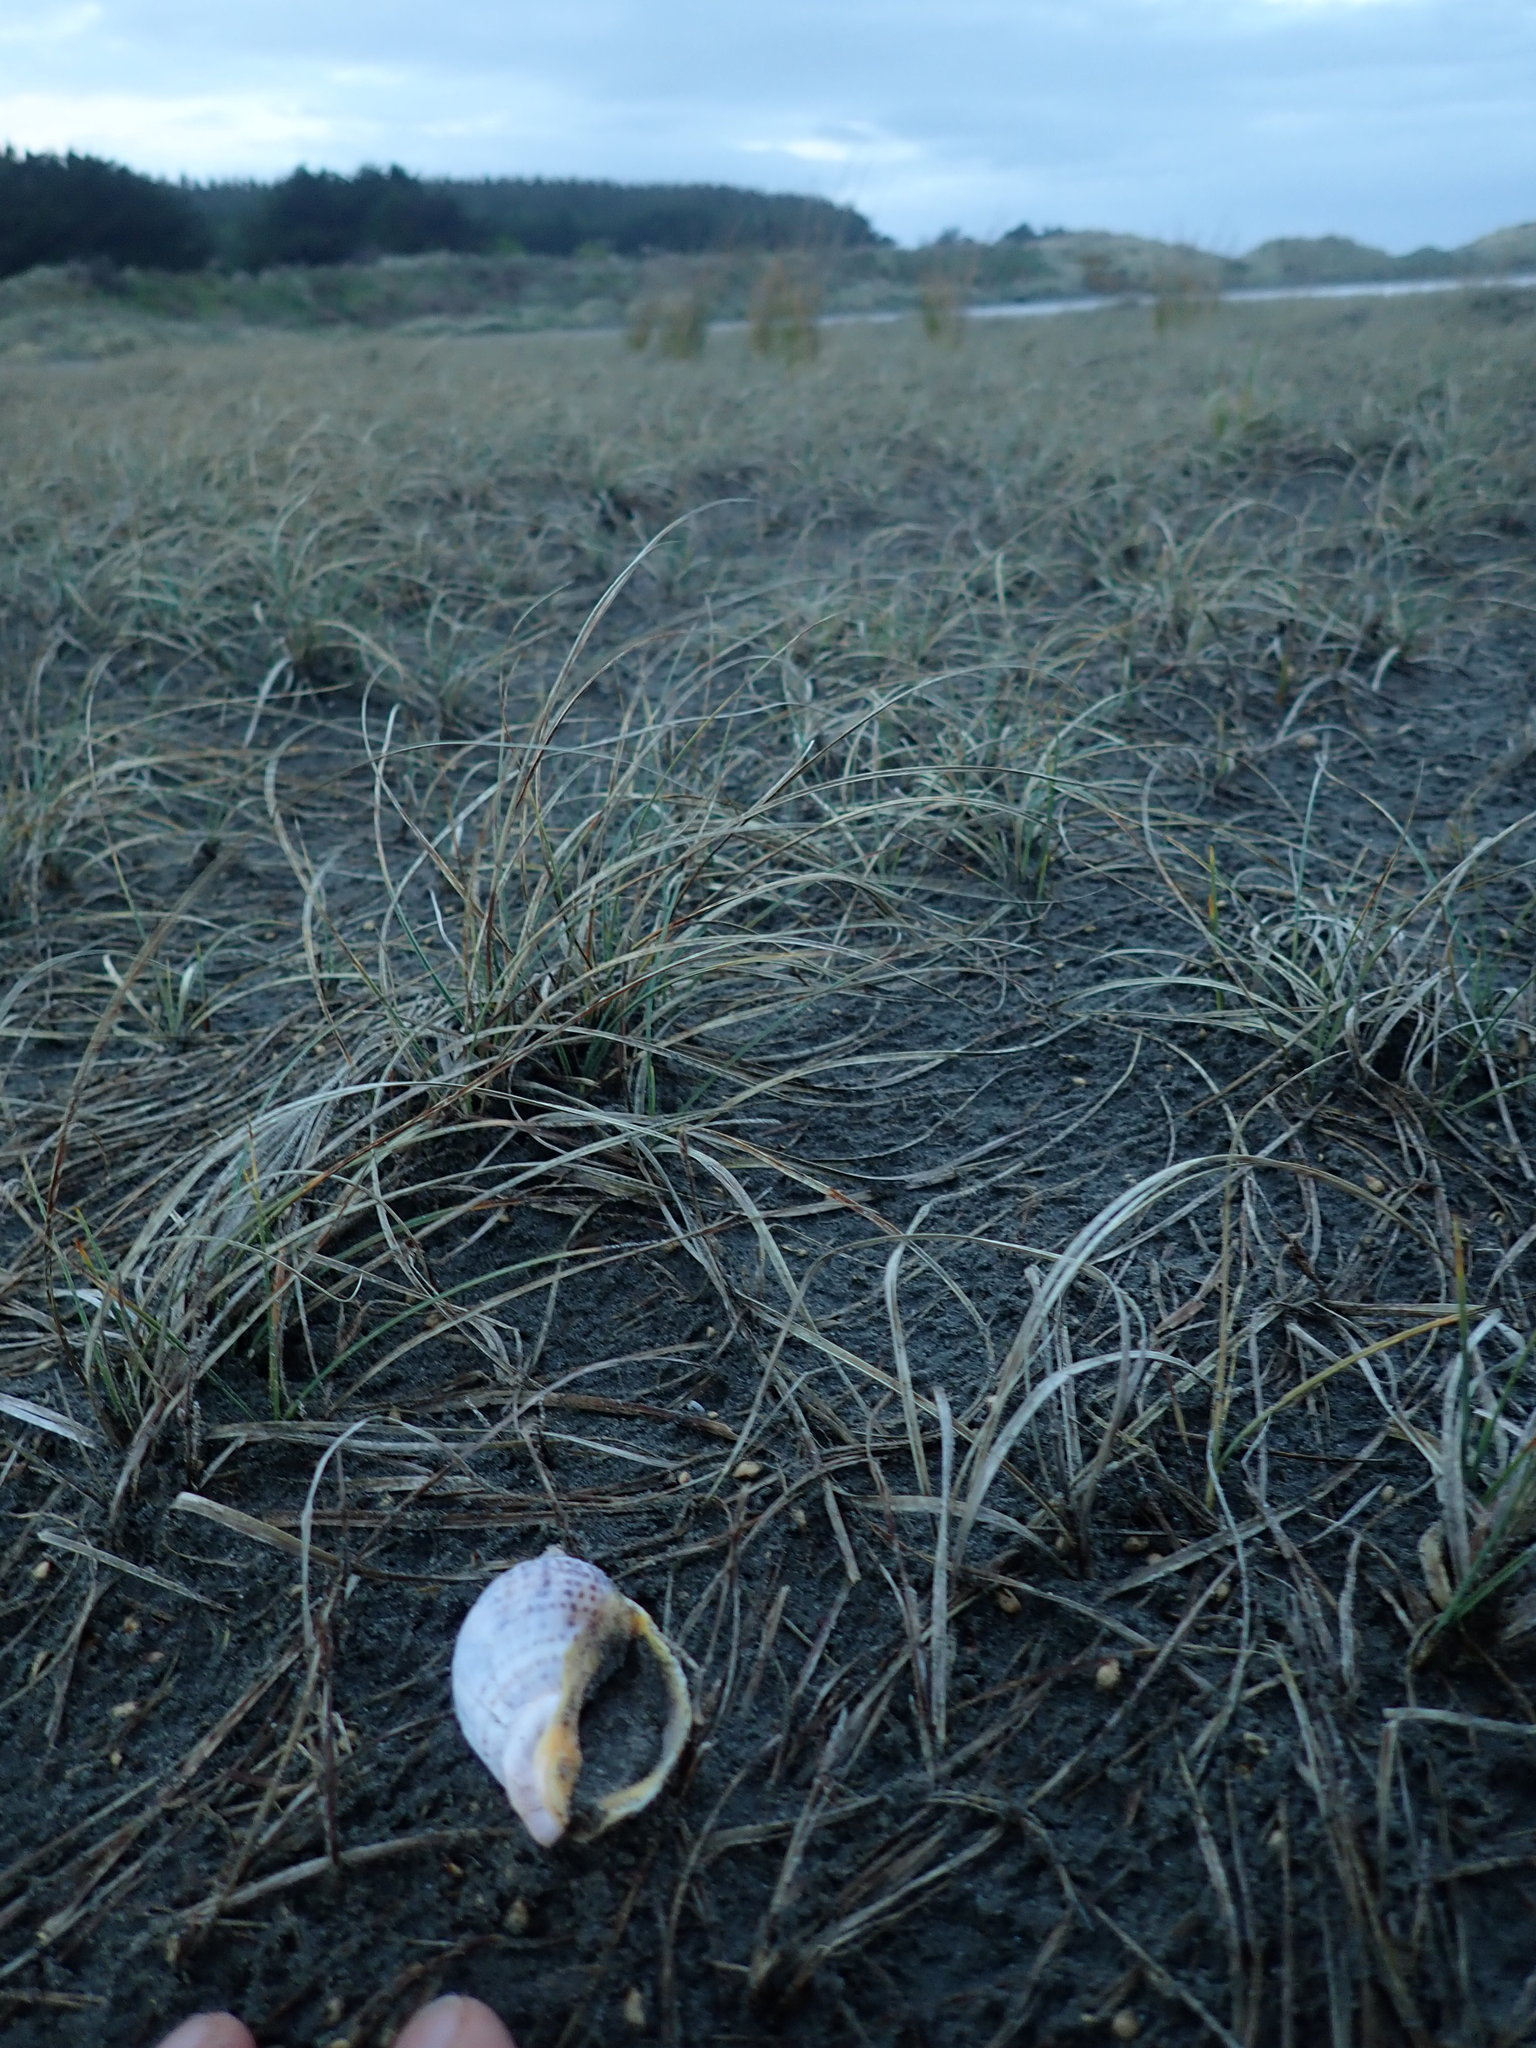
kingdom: Animalia
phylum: Mollusca
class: Gastropoda
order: Neogastropoda
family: Cominellidae
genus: Cominella
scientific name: Cominella adspersa
